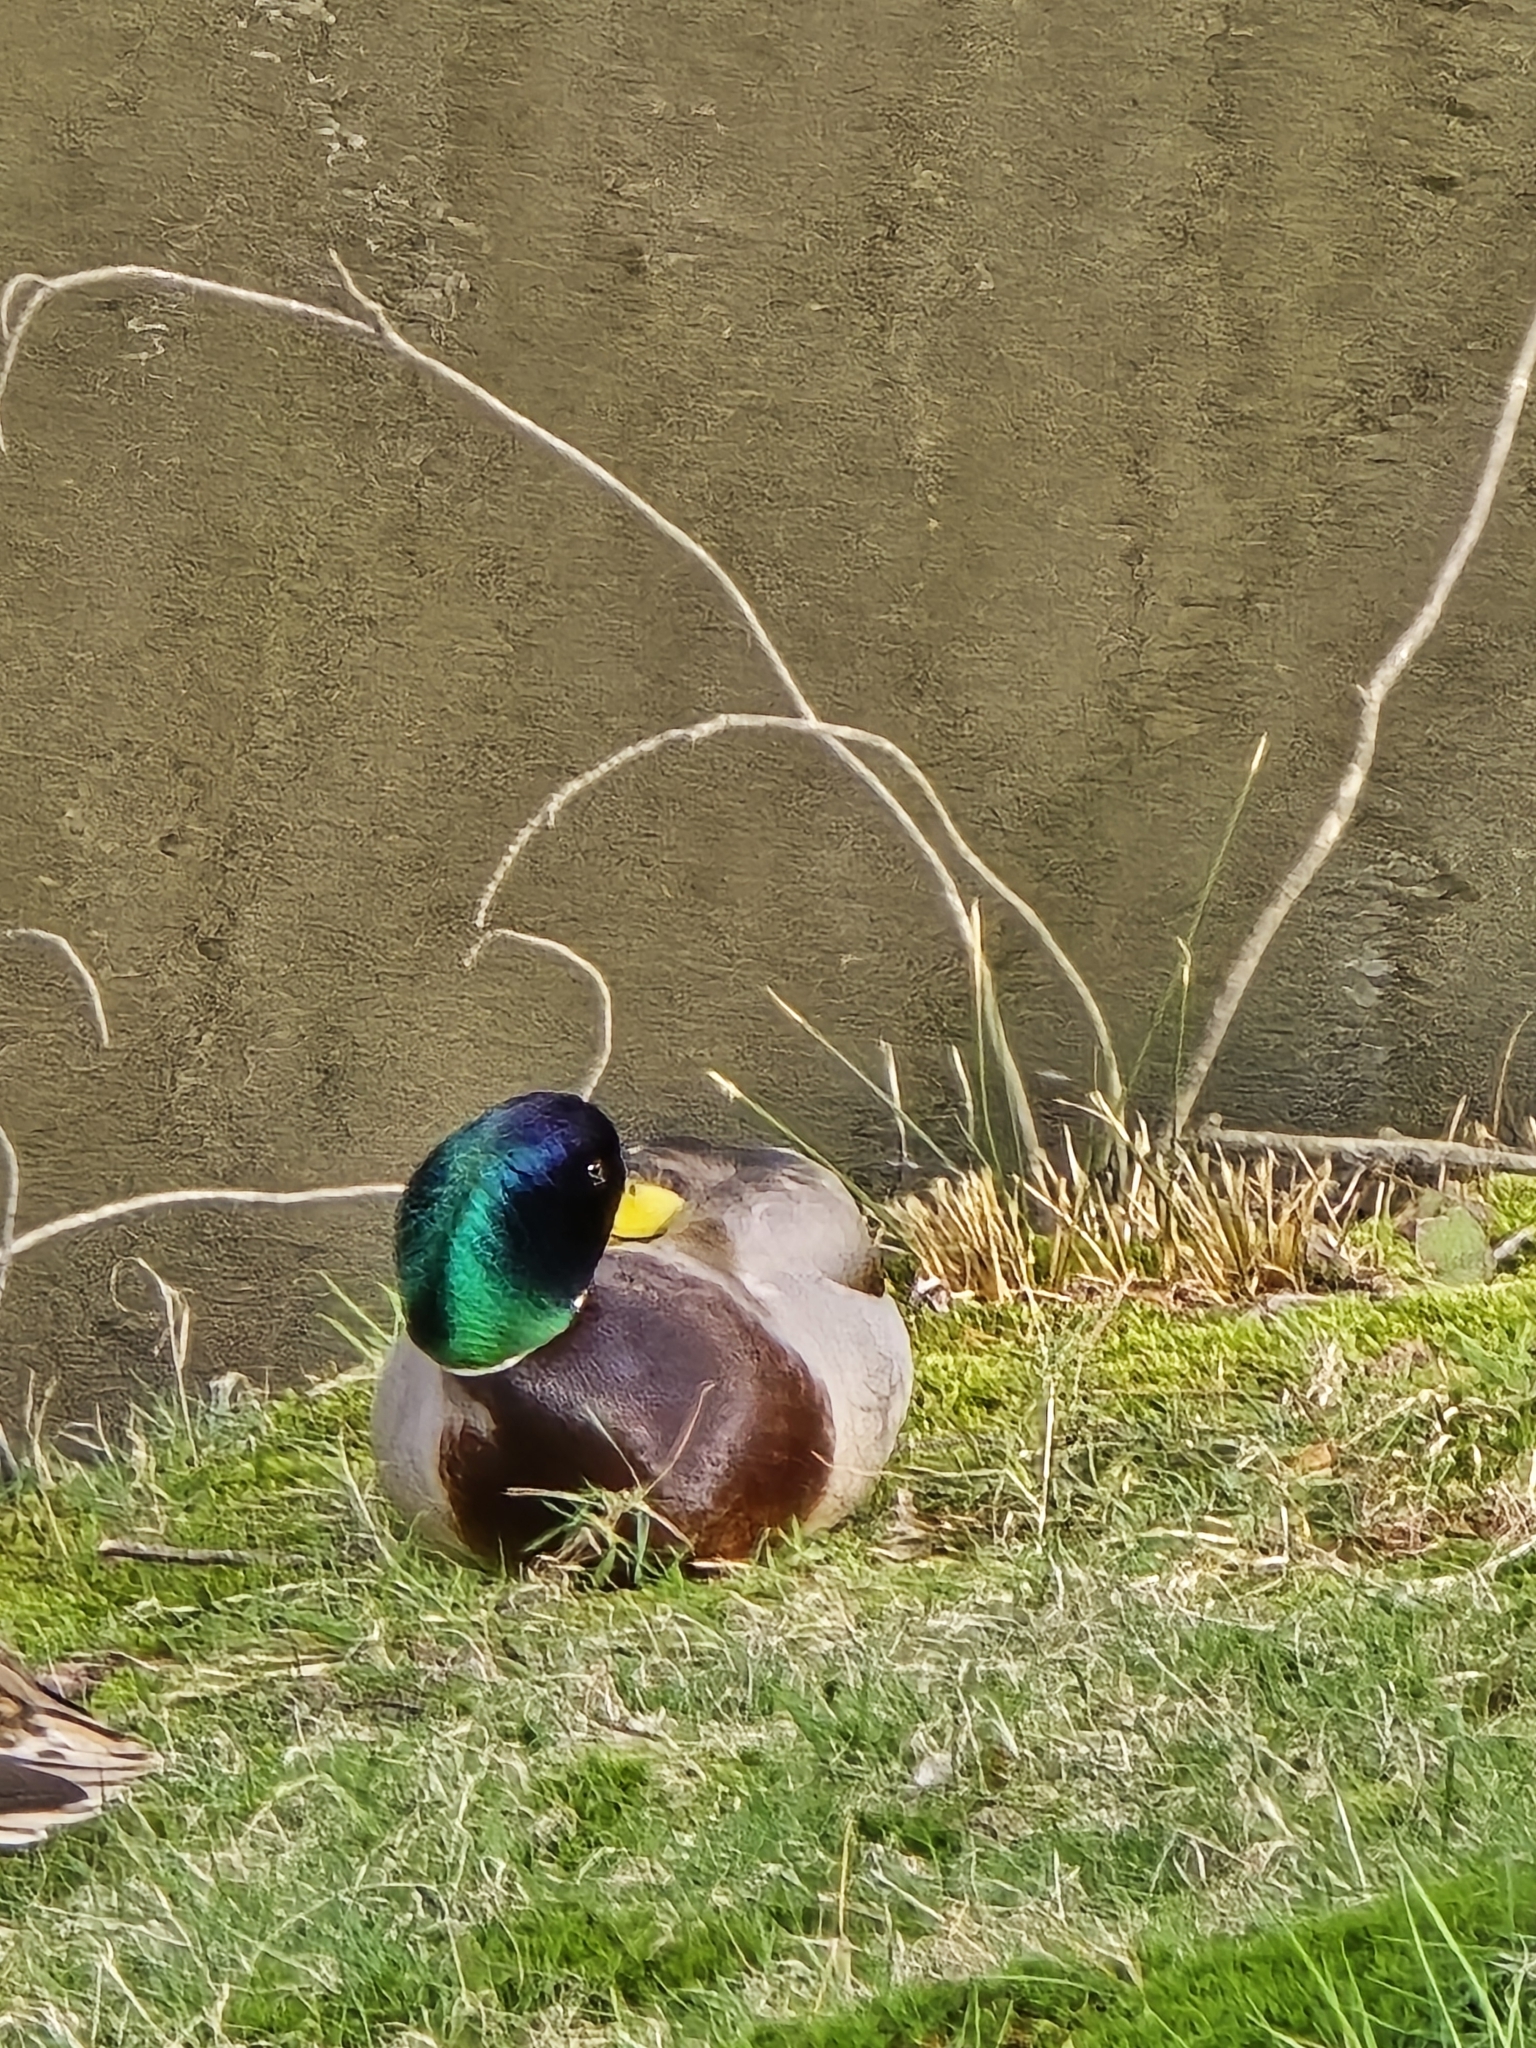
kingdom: Animalia
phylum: Chordata
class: Aves
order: Anseriformes
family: Anatidae
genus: Anas
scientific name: Anas platyrhynchos
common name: Mallard
